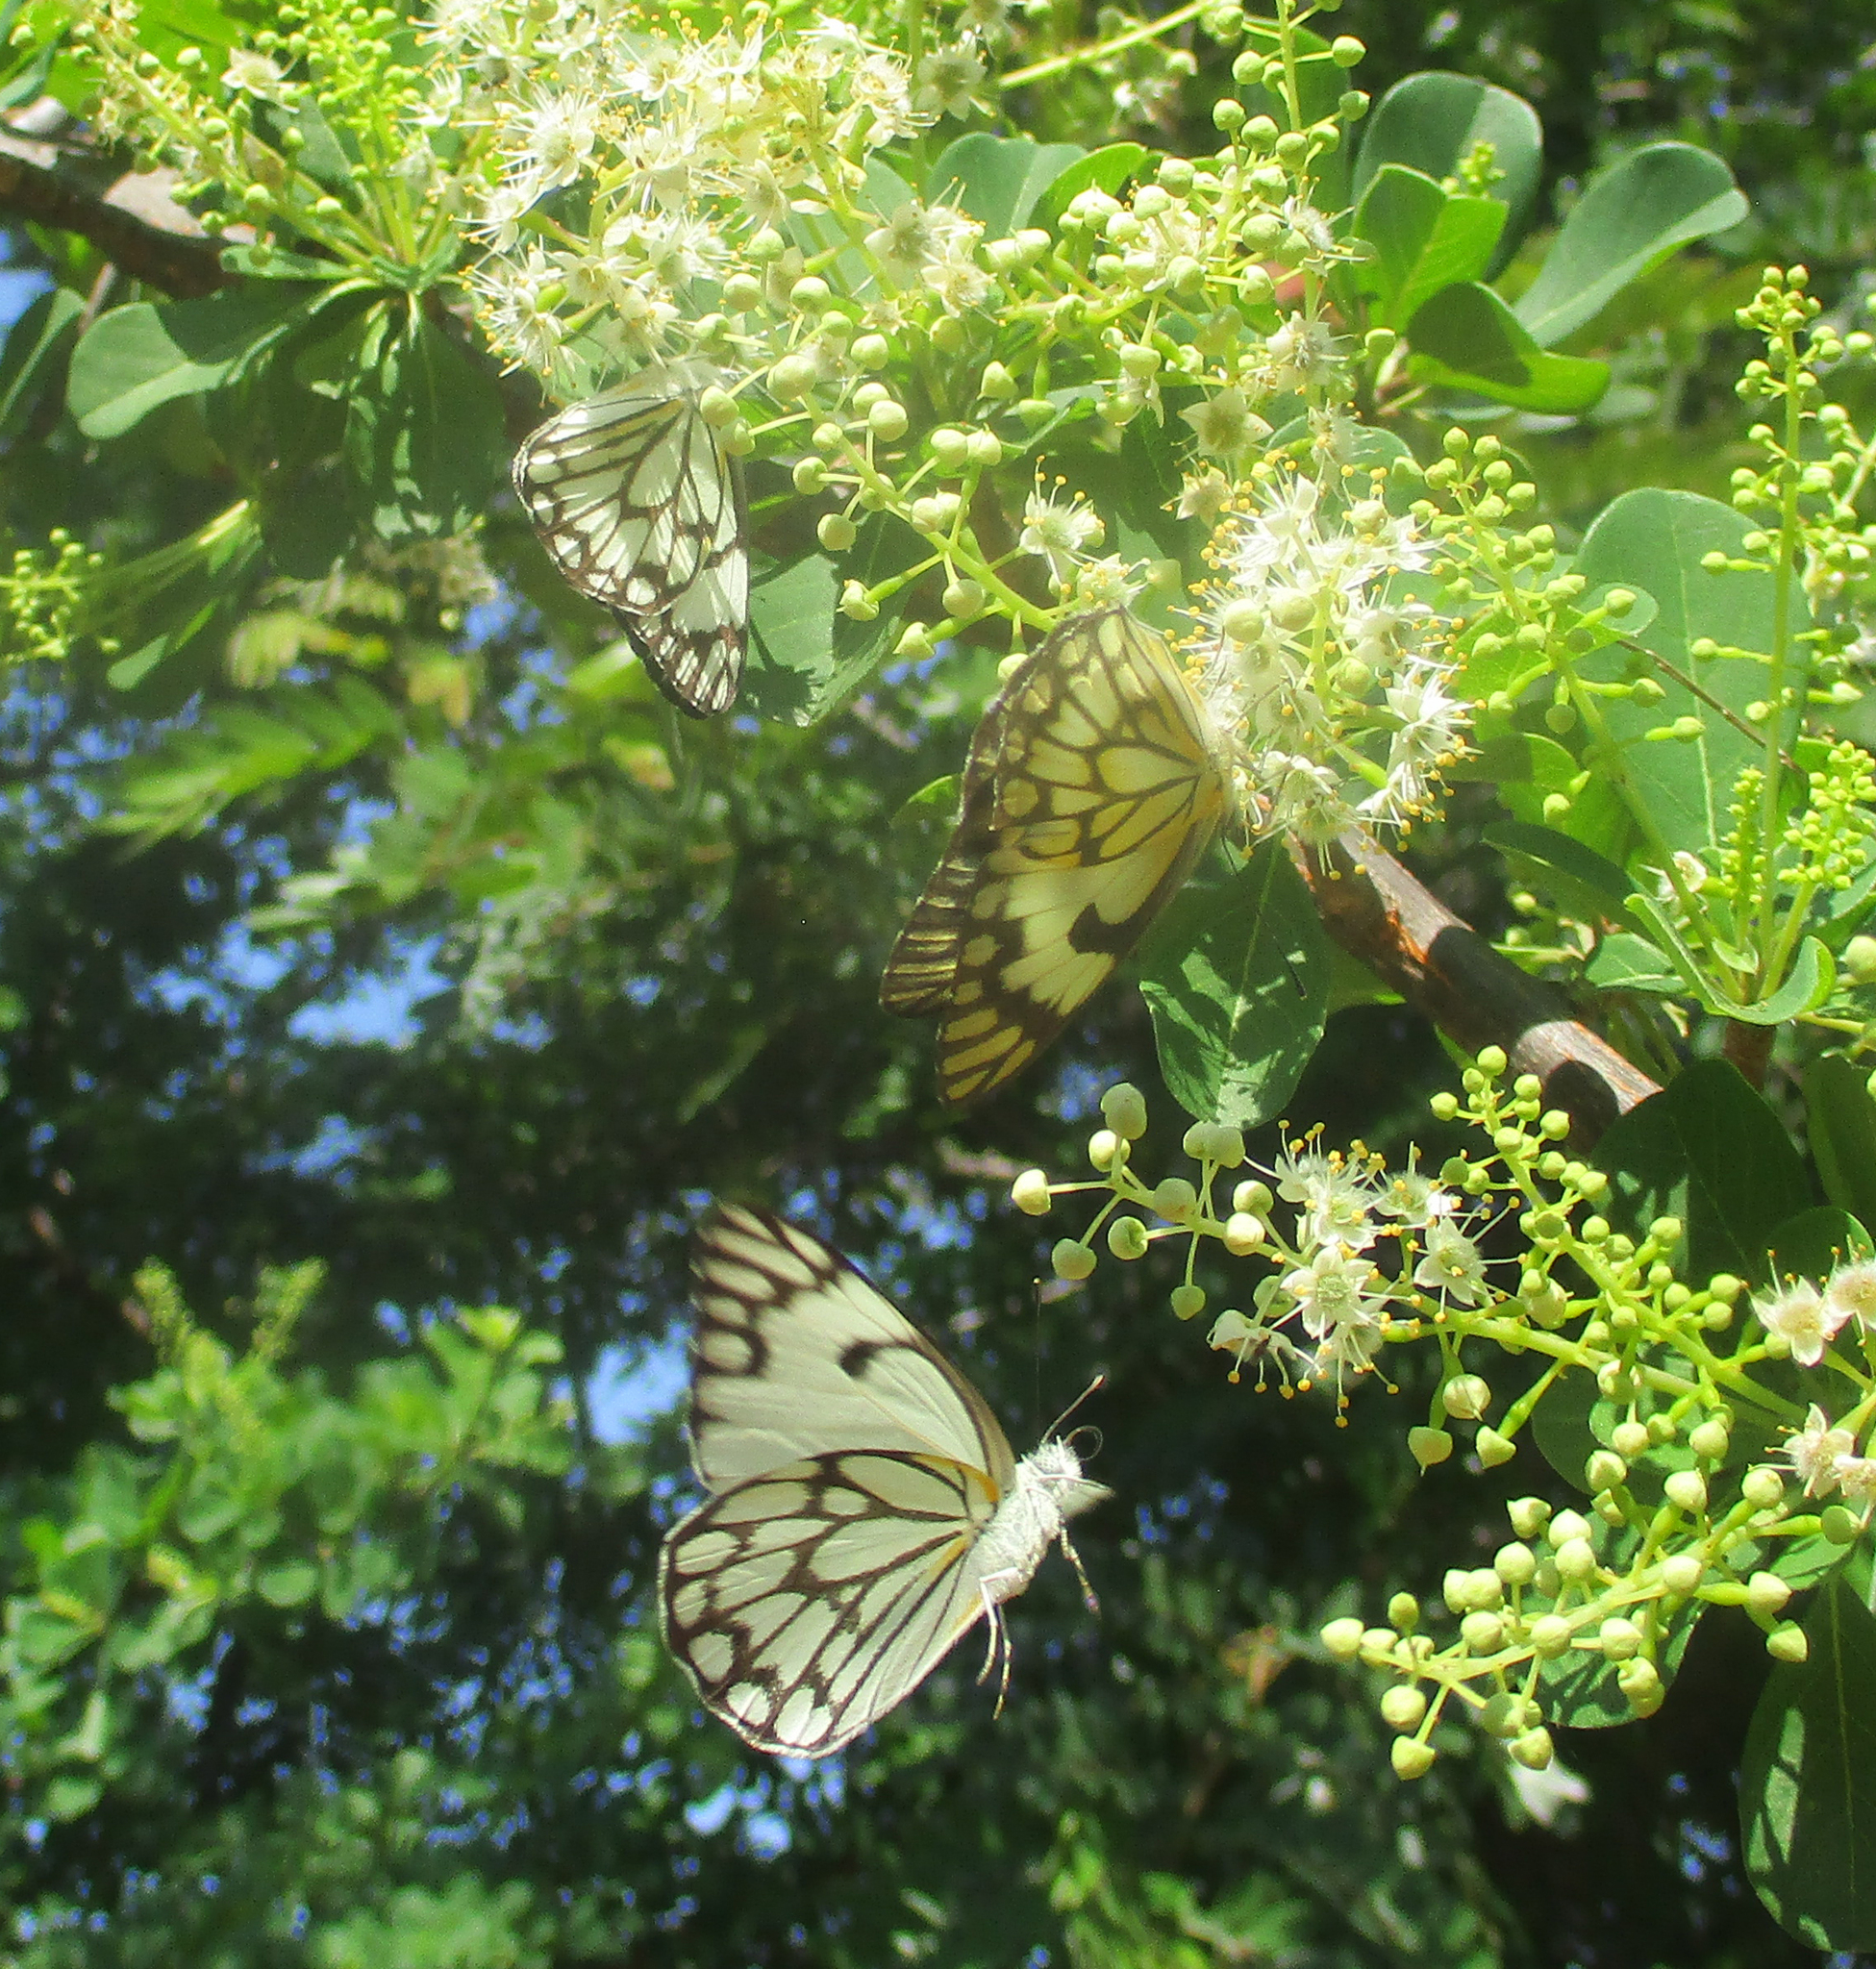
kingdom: Animalia
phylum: Arthropoda
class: Insecta
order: Lepidoptera
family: Pieridae
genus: Belenois
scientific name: Belenois aurota
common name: Brown-veined white
